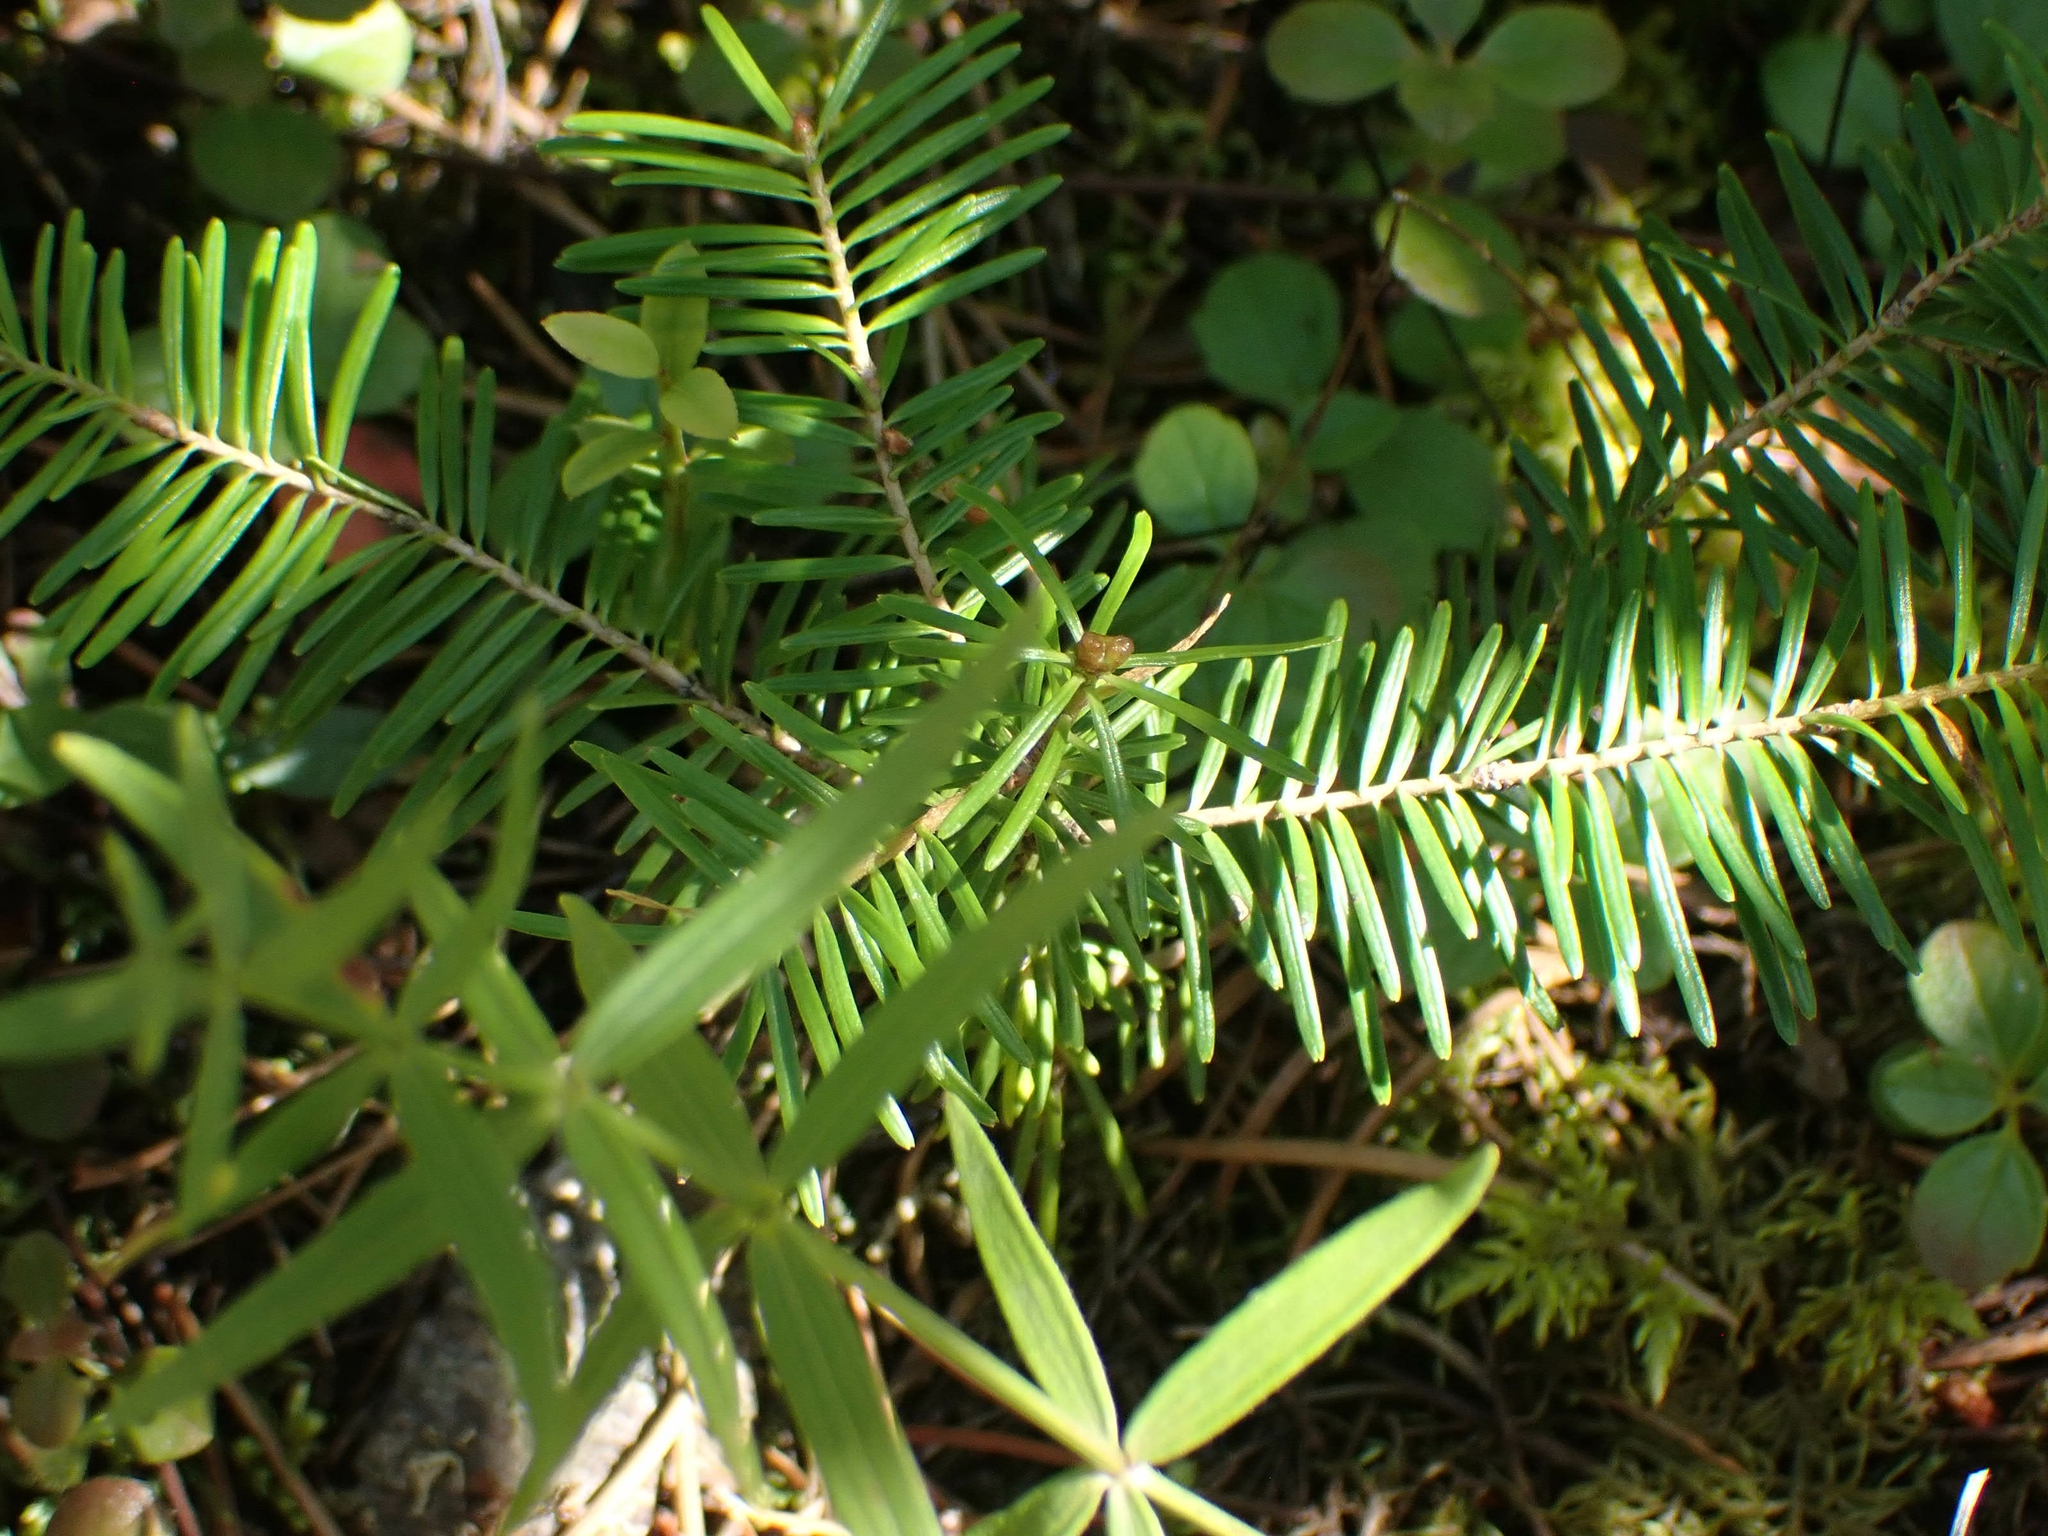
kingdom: Plantae
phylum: Tracheophyta
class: Pinopsida
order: Pinales
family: Pinaceae
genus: Abies
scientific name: Abies balsamea
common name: Balsam fir
